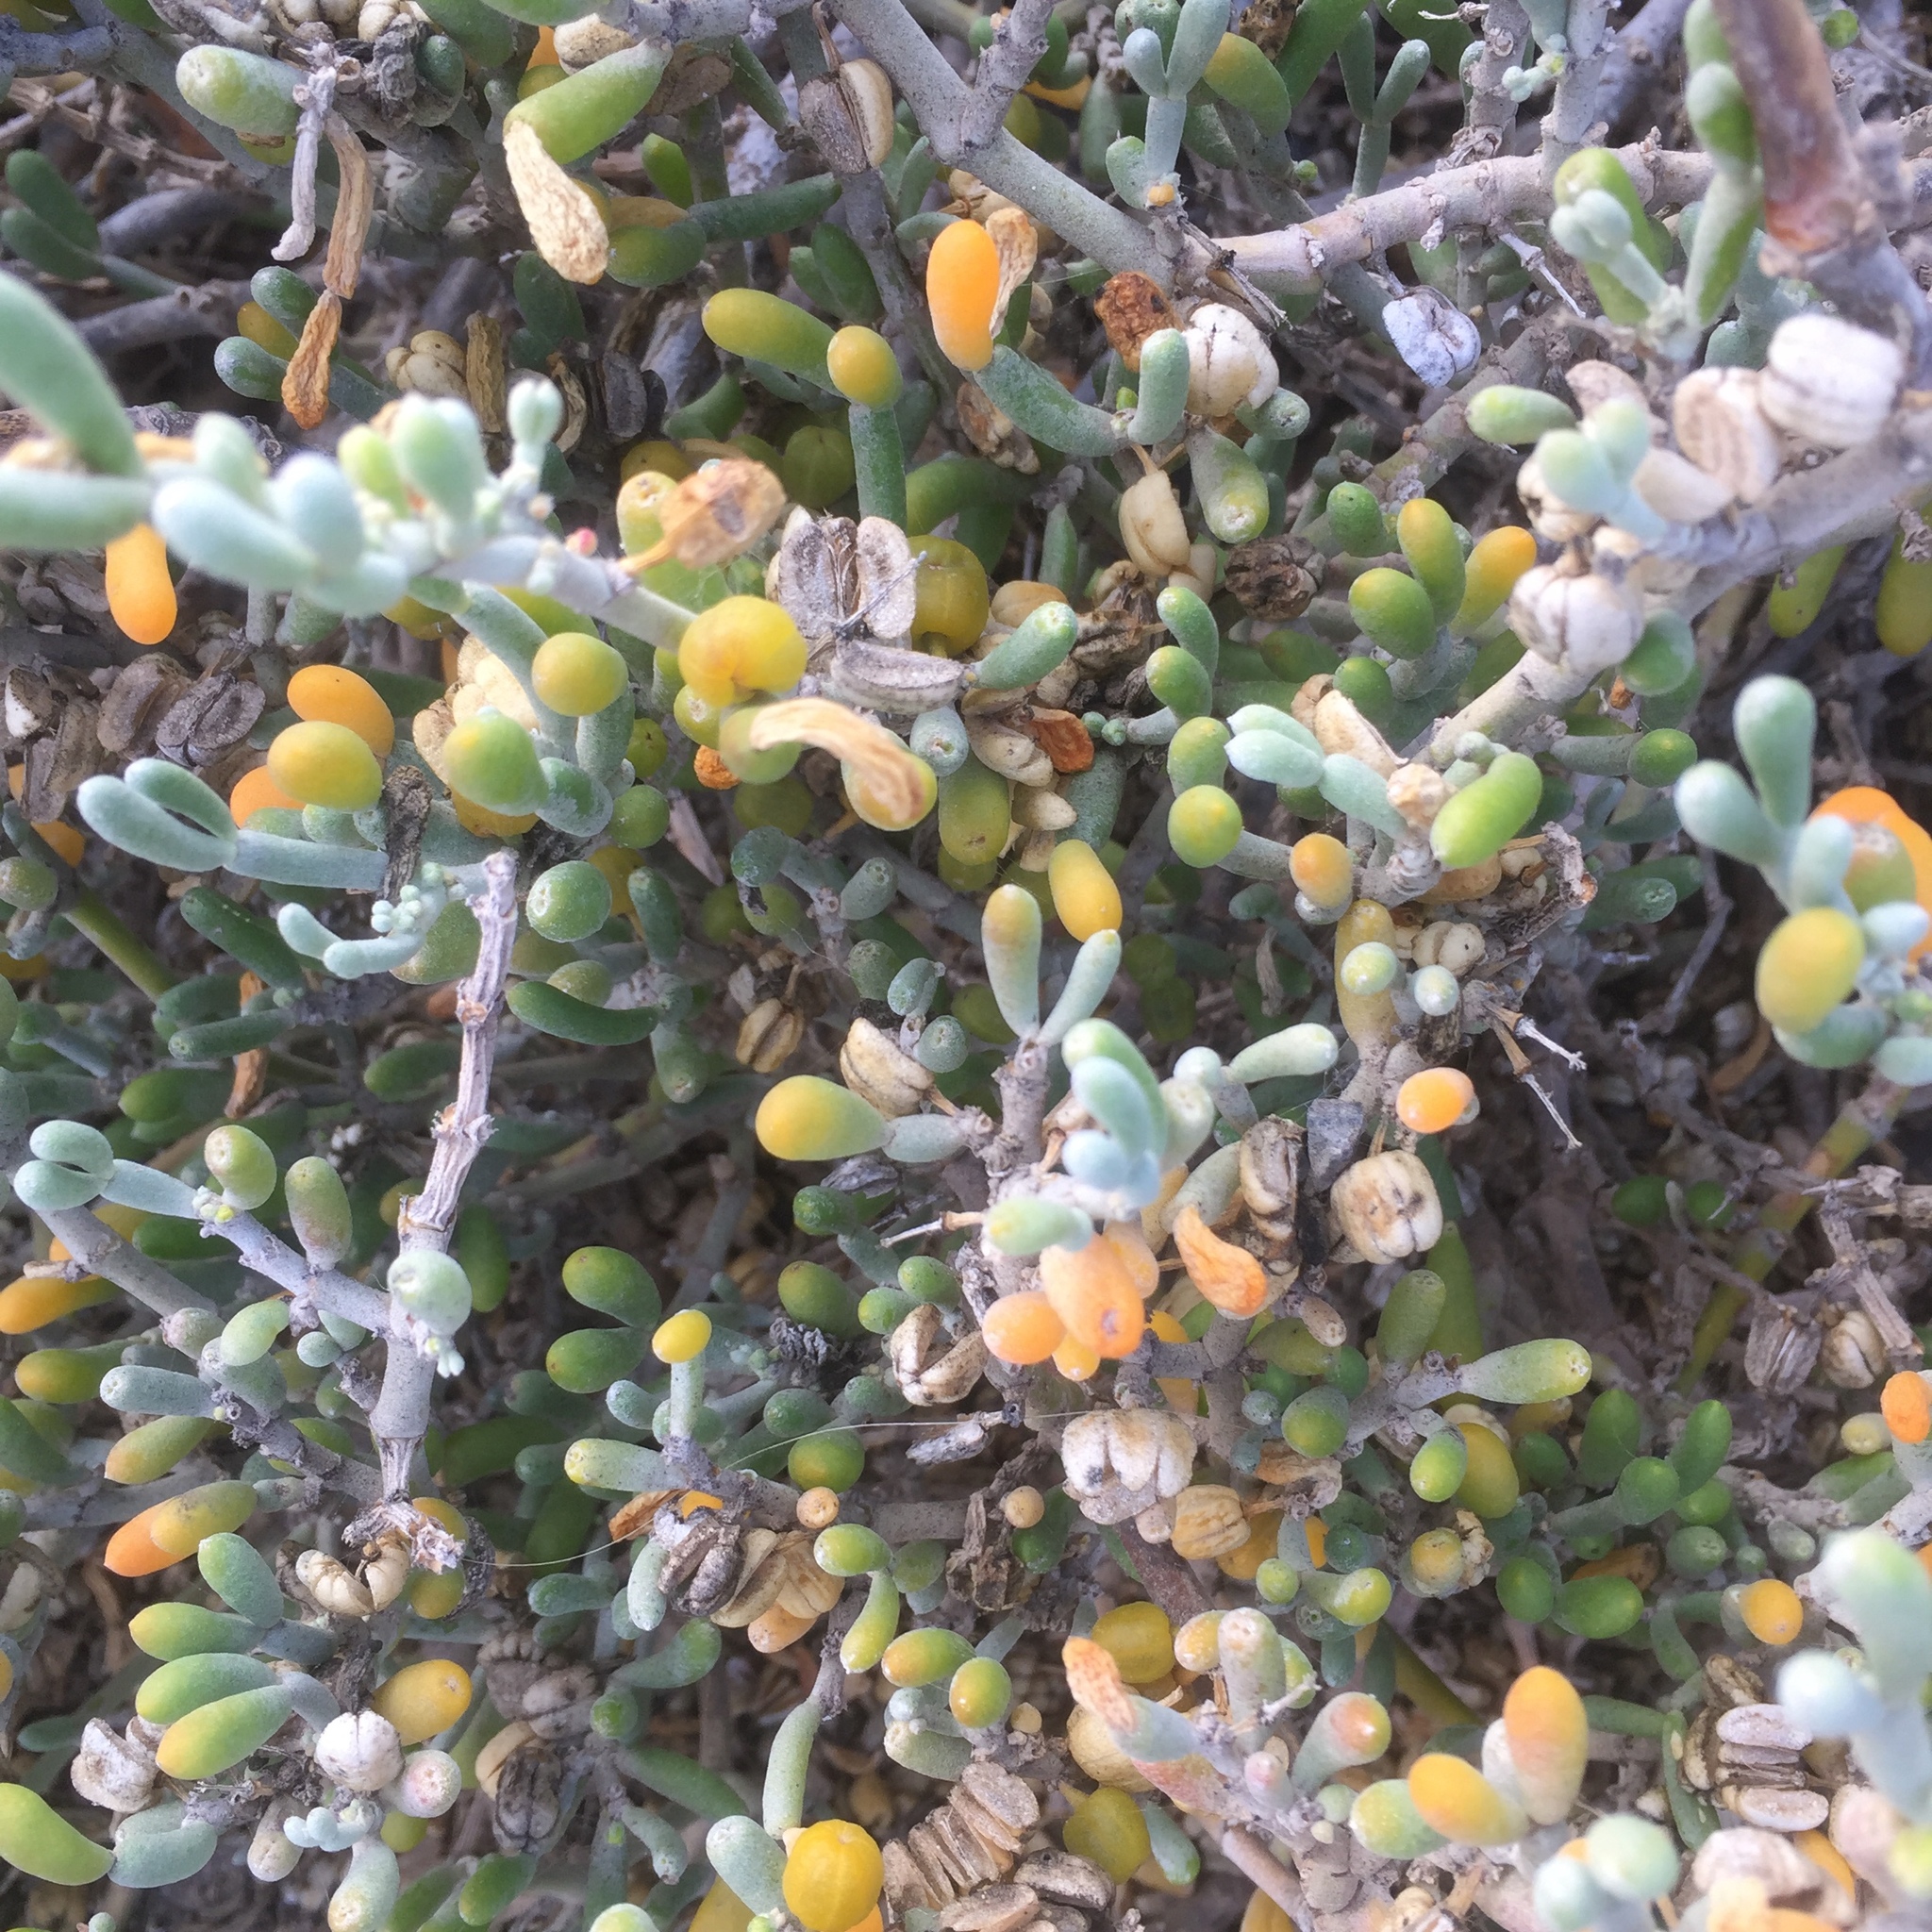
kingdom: Plantae
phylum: Tracheophyta
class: Magnoliopsida
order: Zygophyllales
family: Zygophyllaceae
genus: Tetraena
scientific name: Tetraena fontanesii
